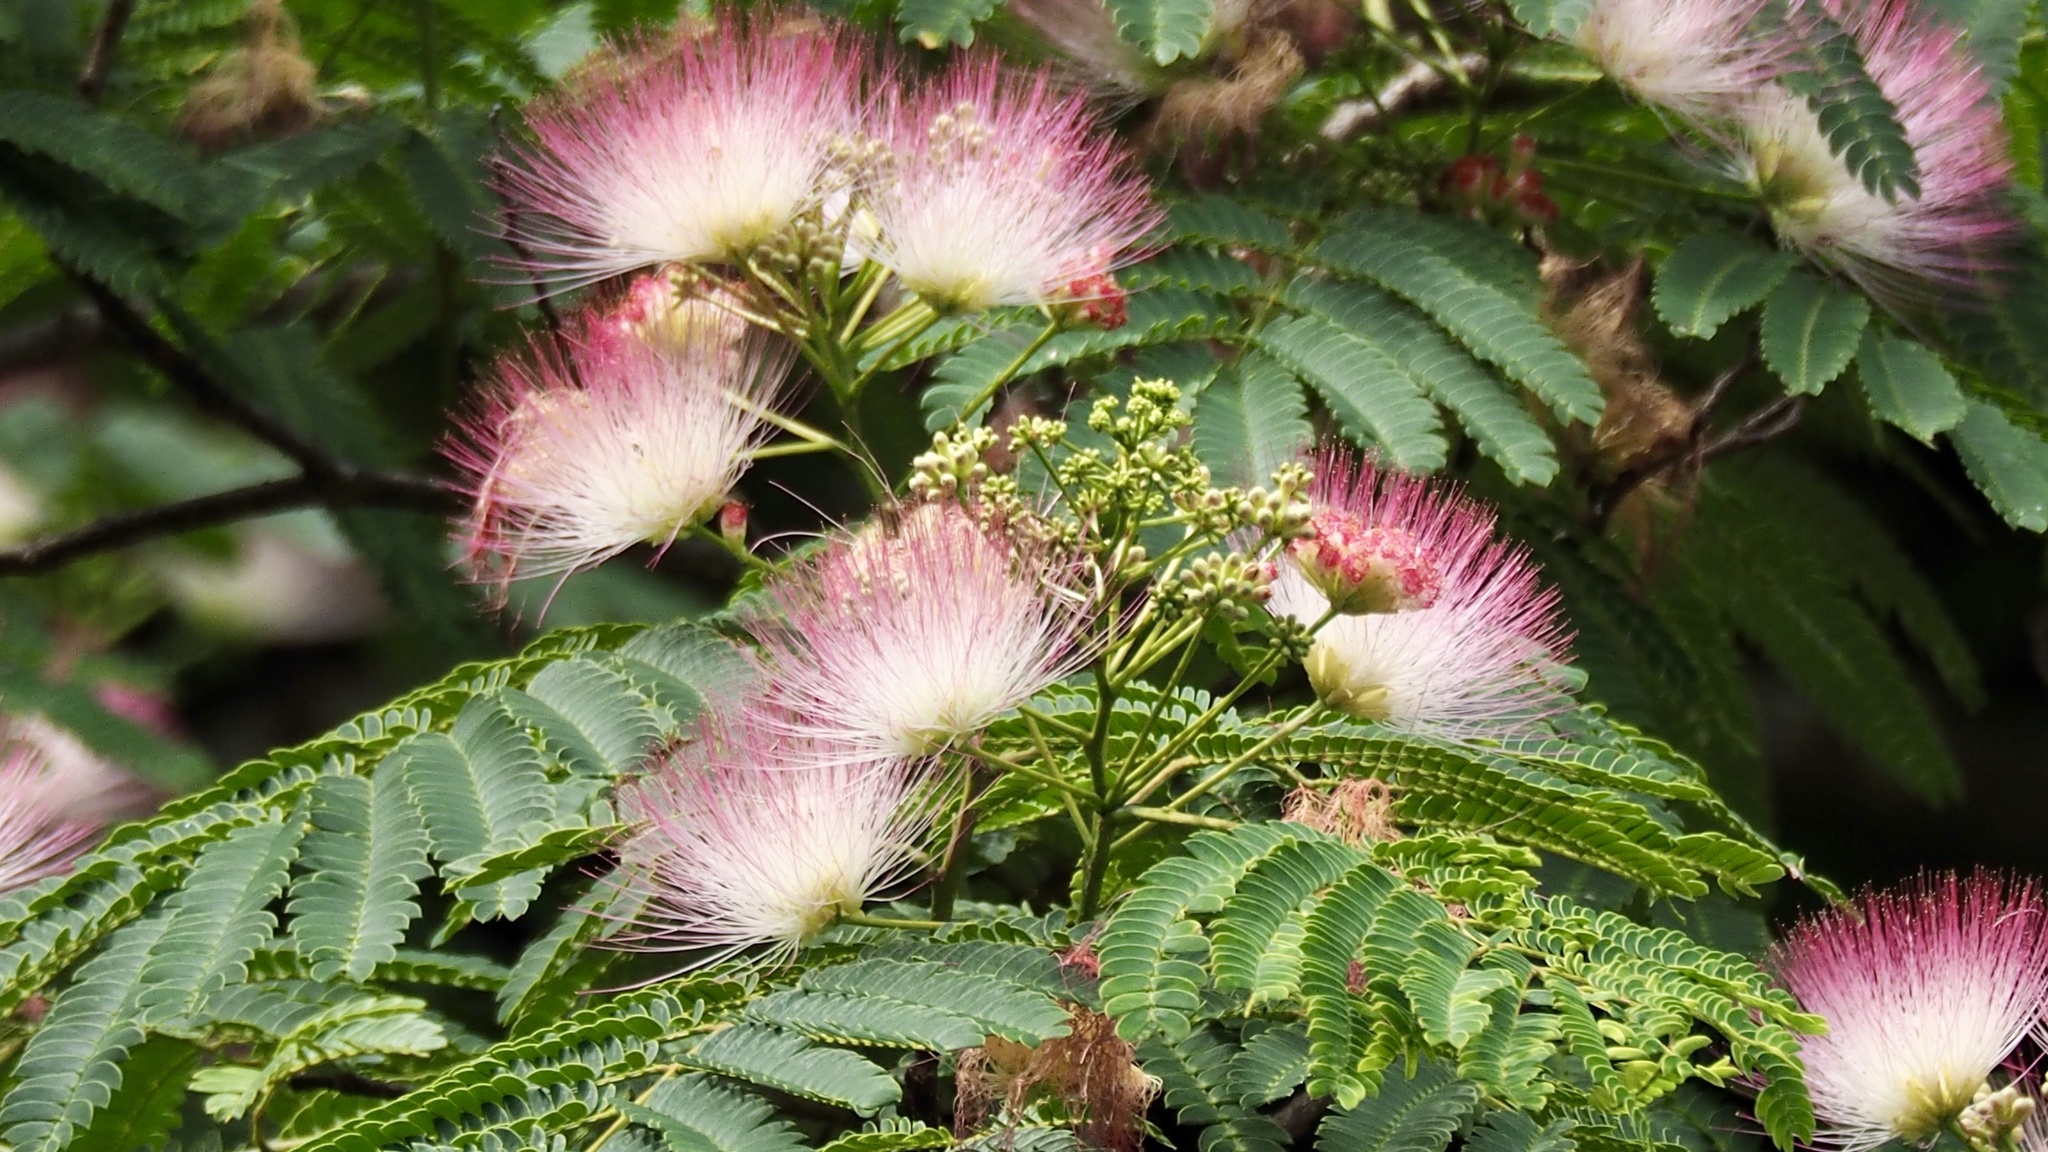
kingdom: Plantae
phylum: Tracheophyta
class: Magnoliopsida
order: Fabales
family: Fabaceae
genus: Albizia
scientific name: Albizia julibrissin
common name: Silktree
